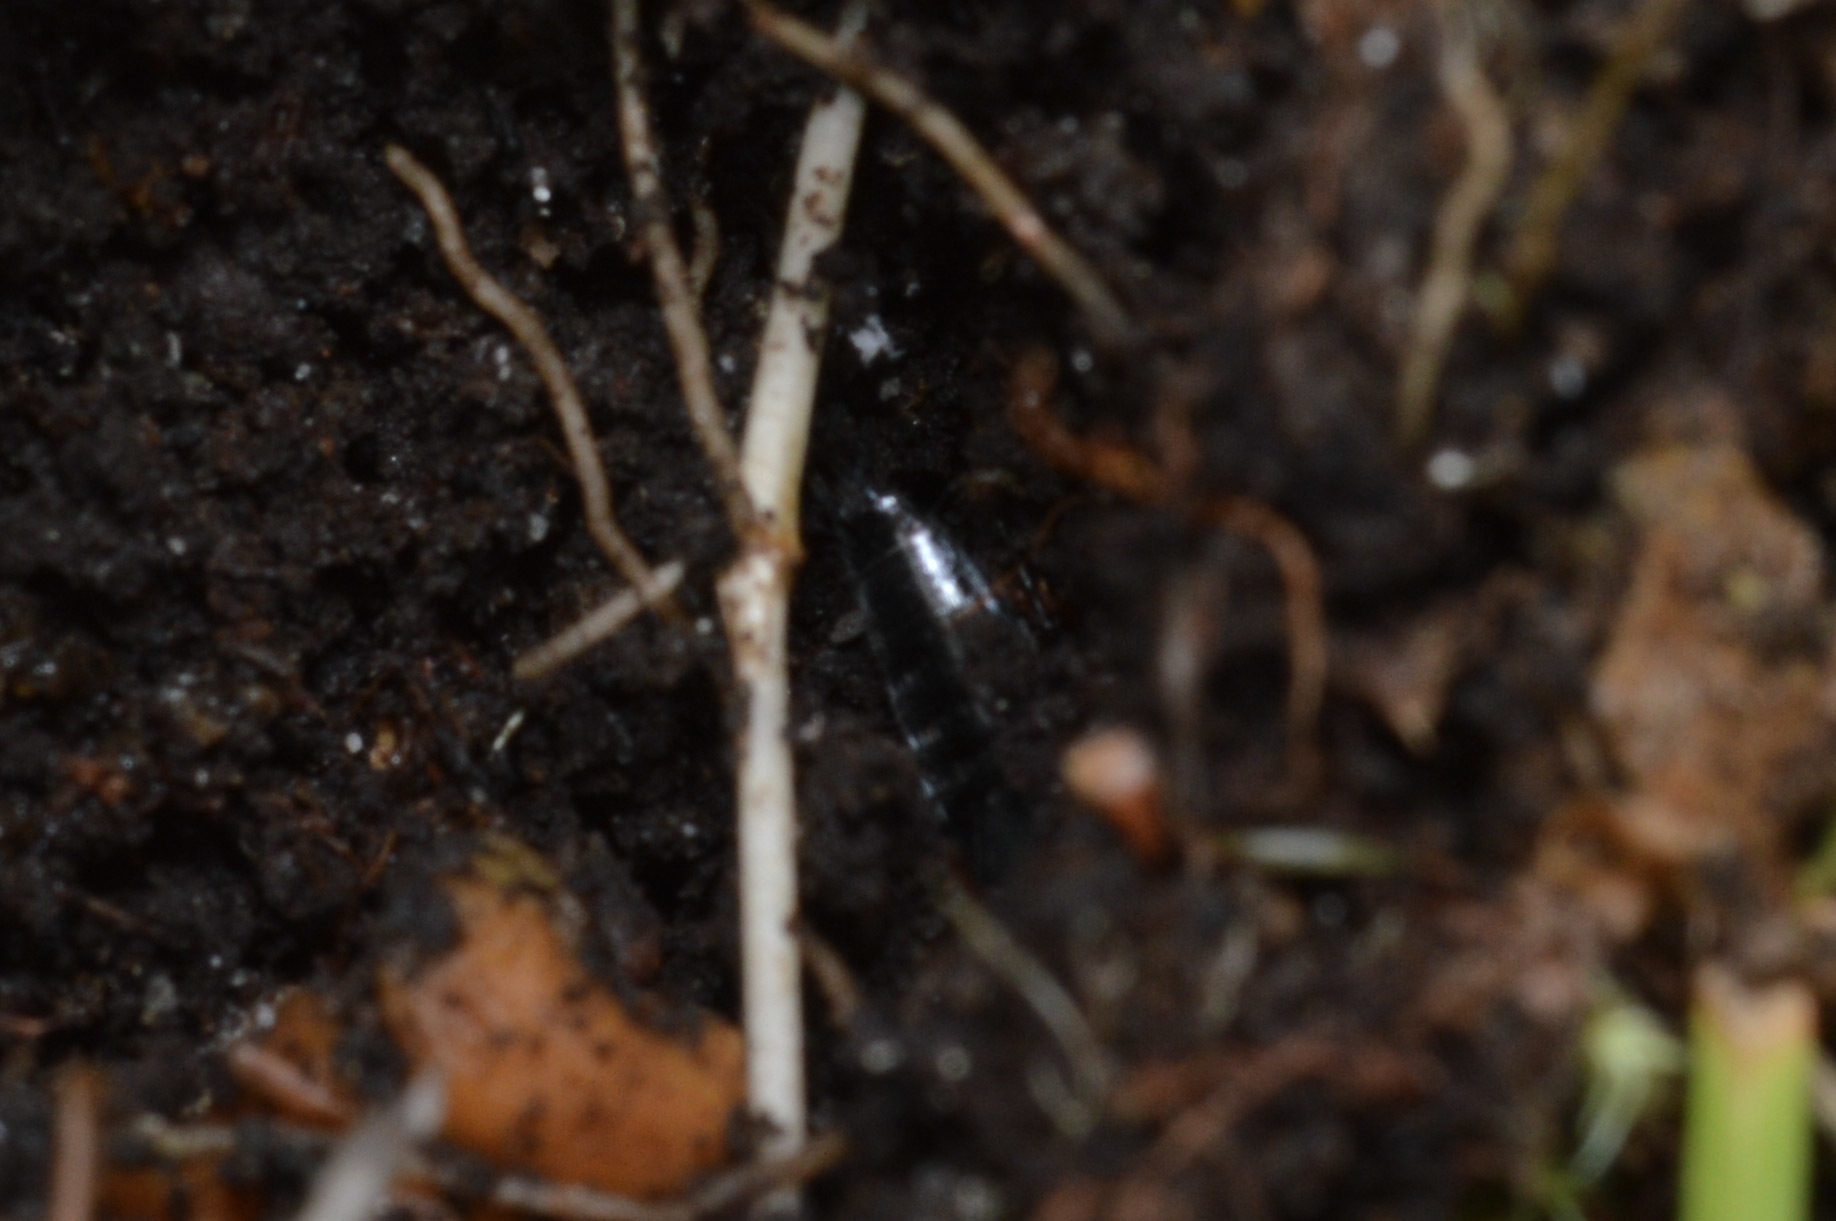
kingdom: Animalia
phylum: Arthropoda
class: Insecta
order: Coleoptera
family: Staphylinidae
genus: Philonthus
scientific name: Philonthus caeruleipennis
